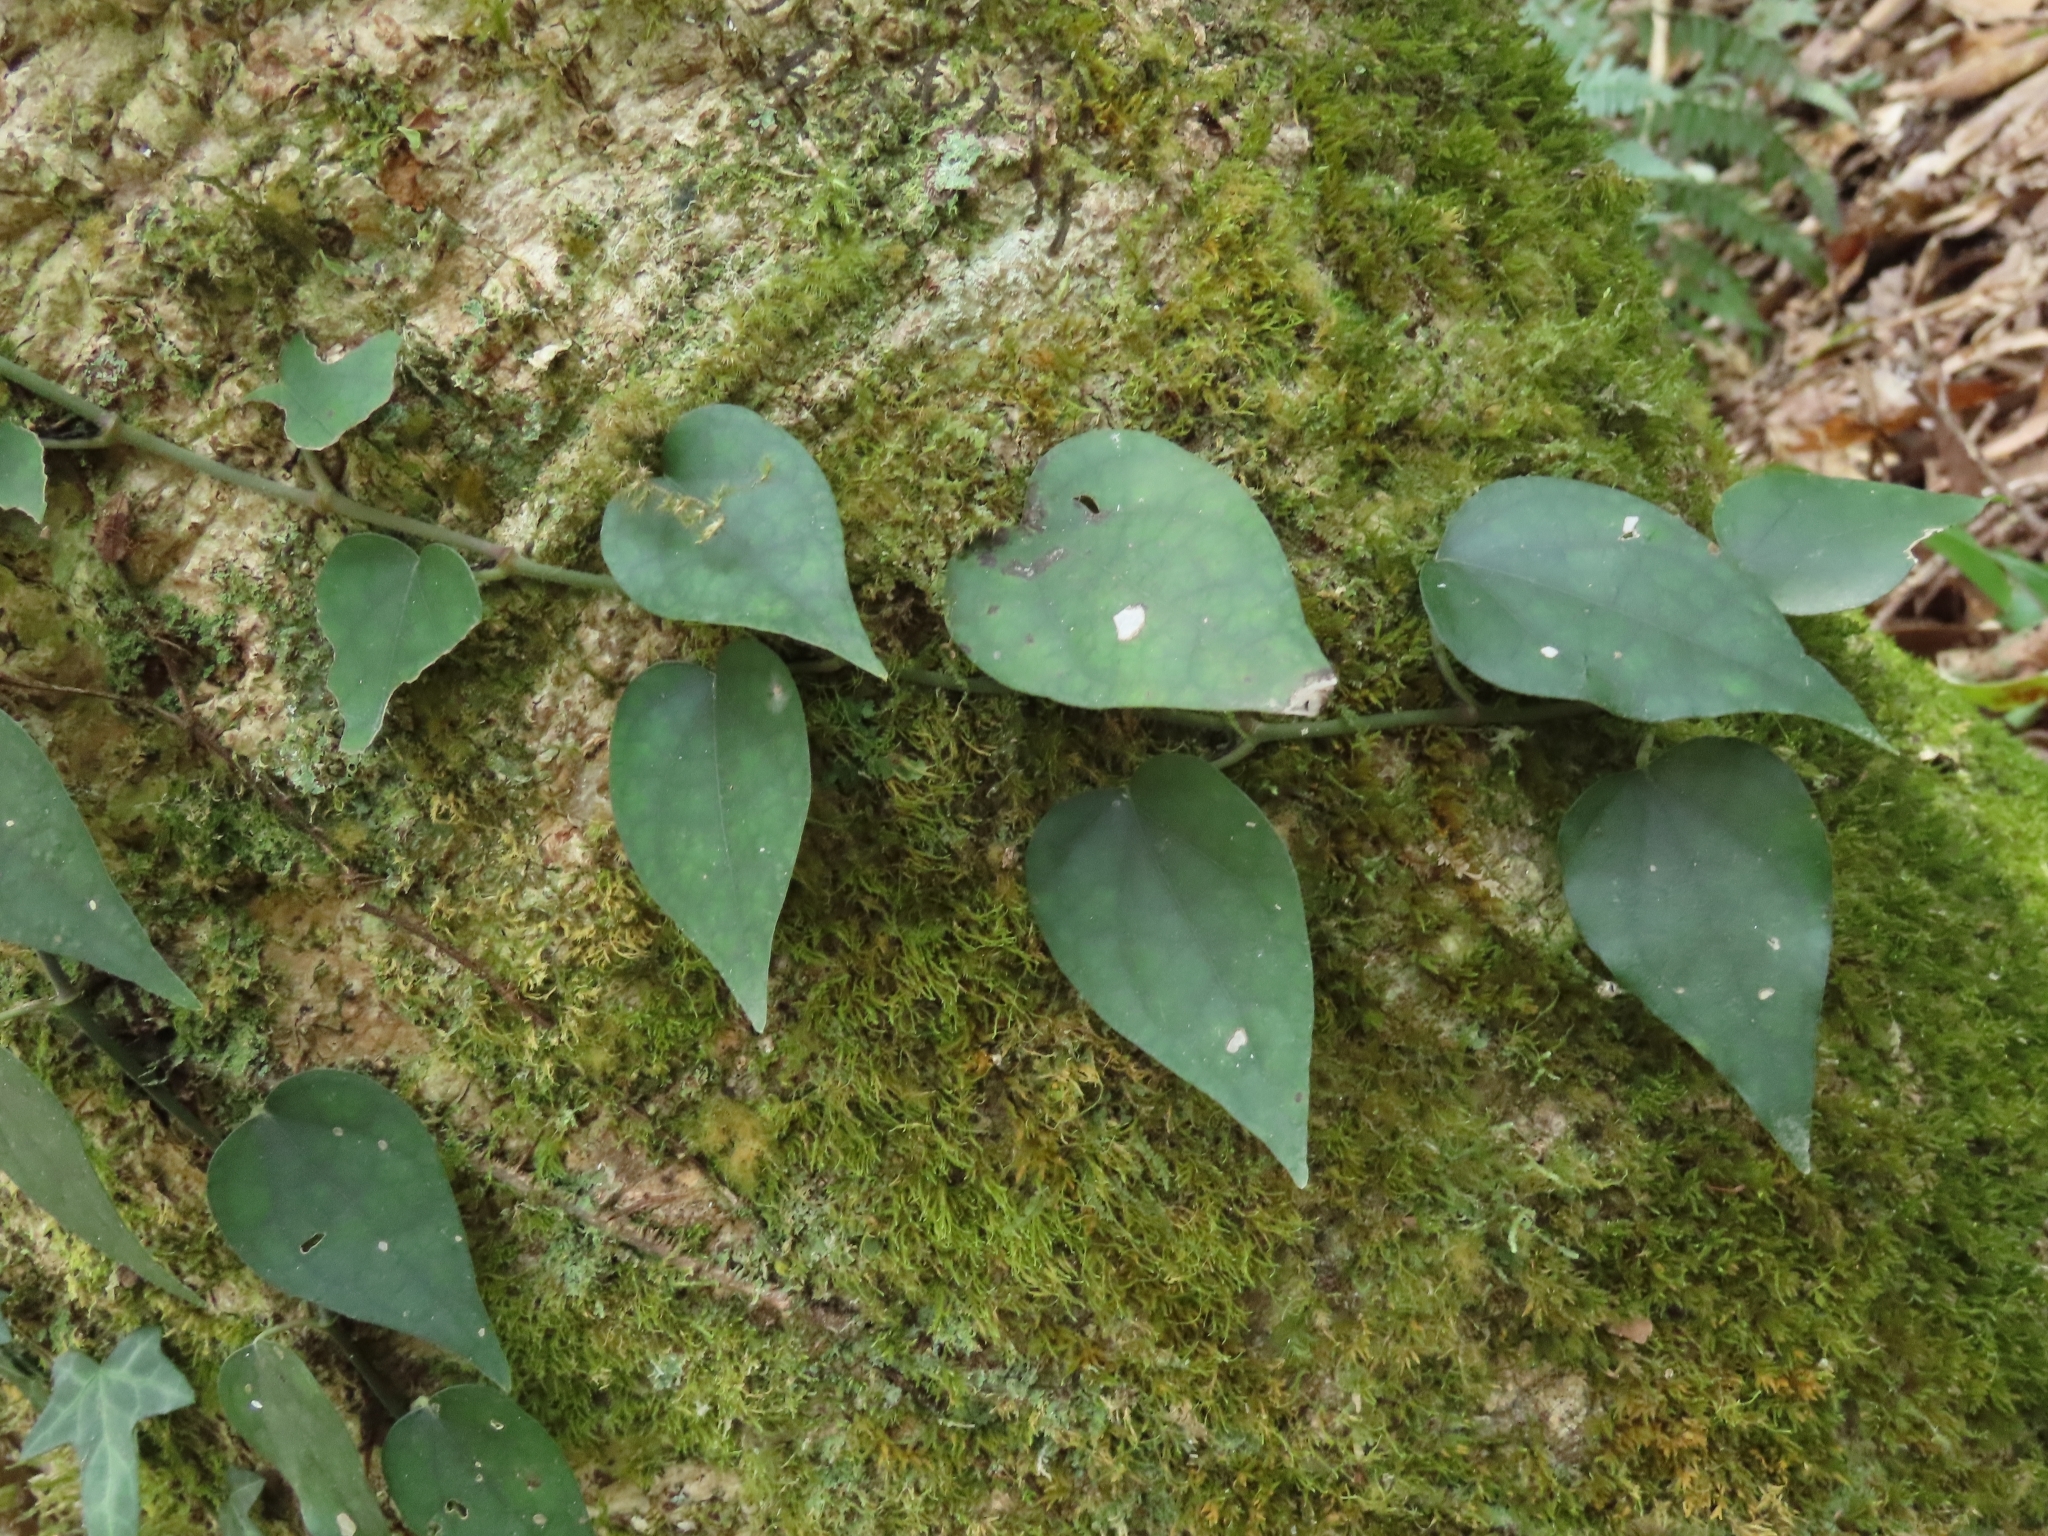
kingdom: Plantae
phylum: Tracheophyta
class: Magnoliopsida
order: Piperales
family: Piperaceae
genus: Piper
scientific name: Piper kadsura
